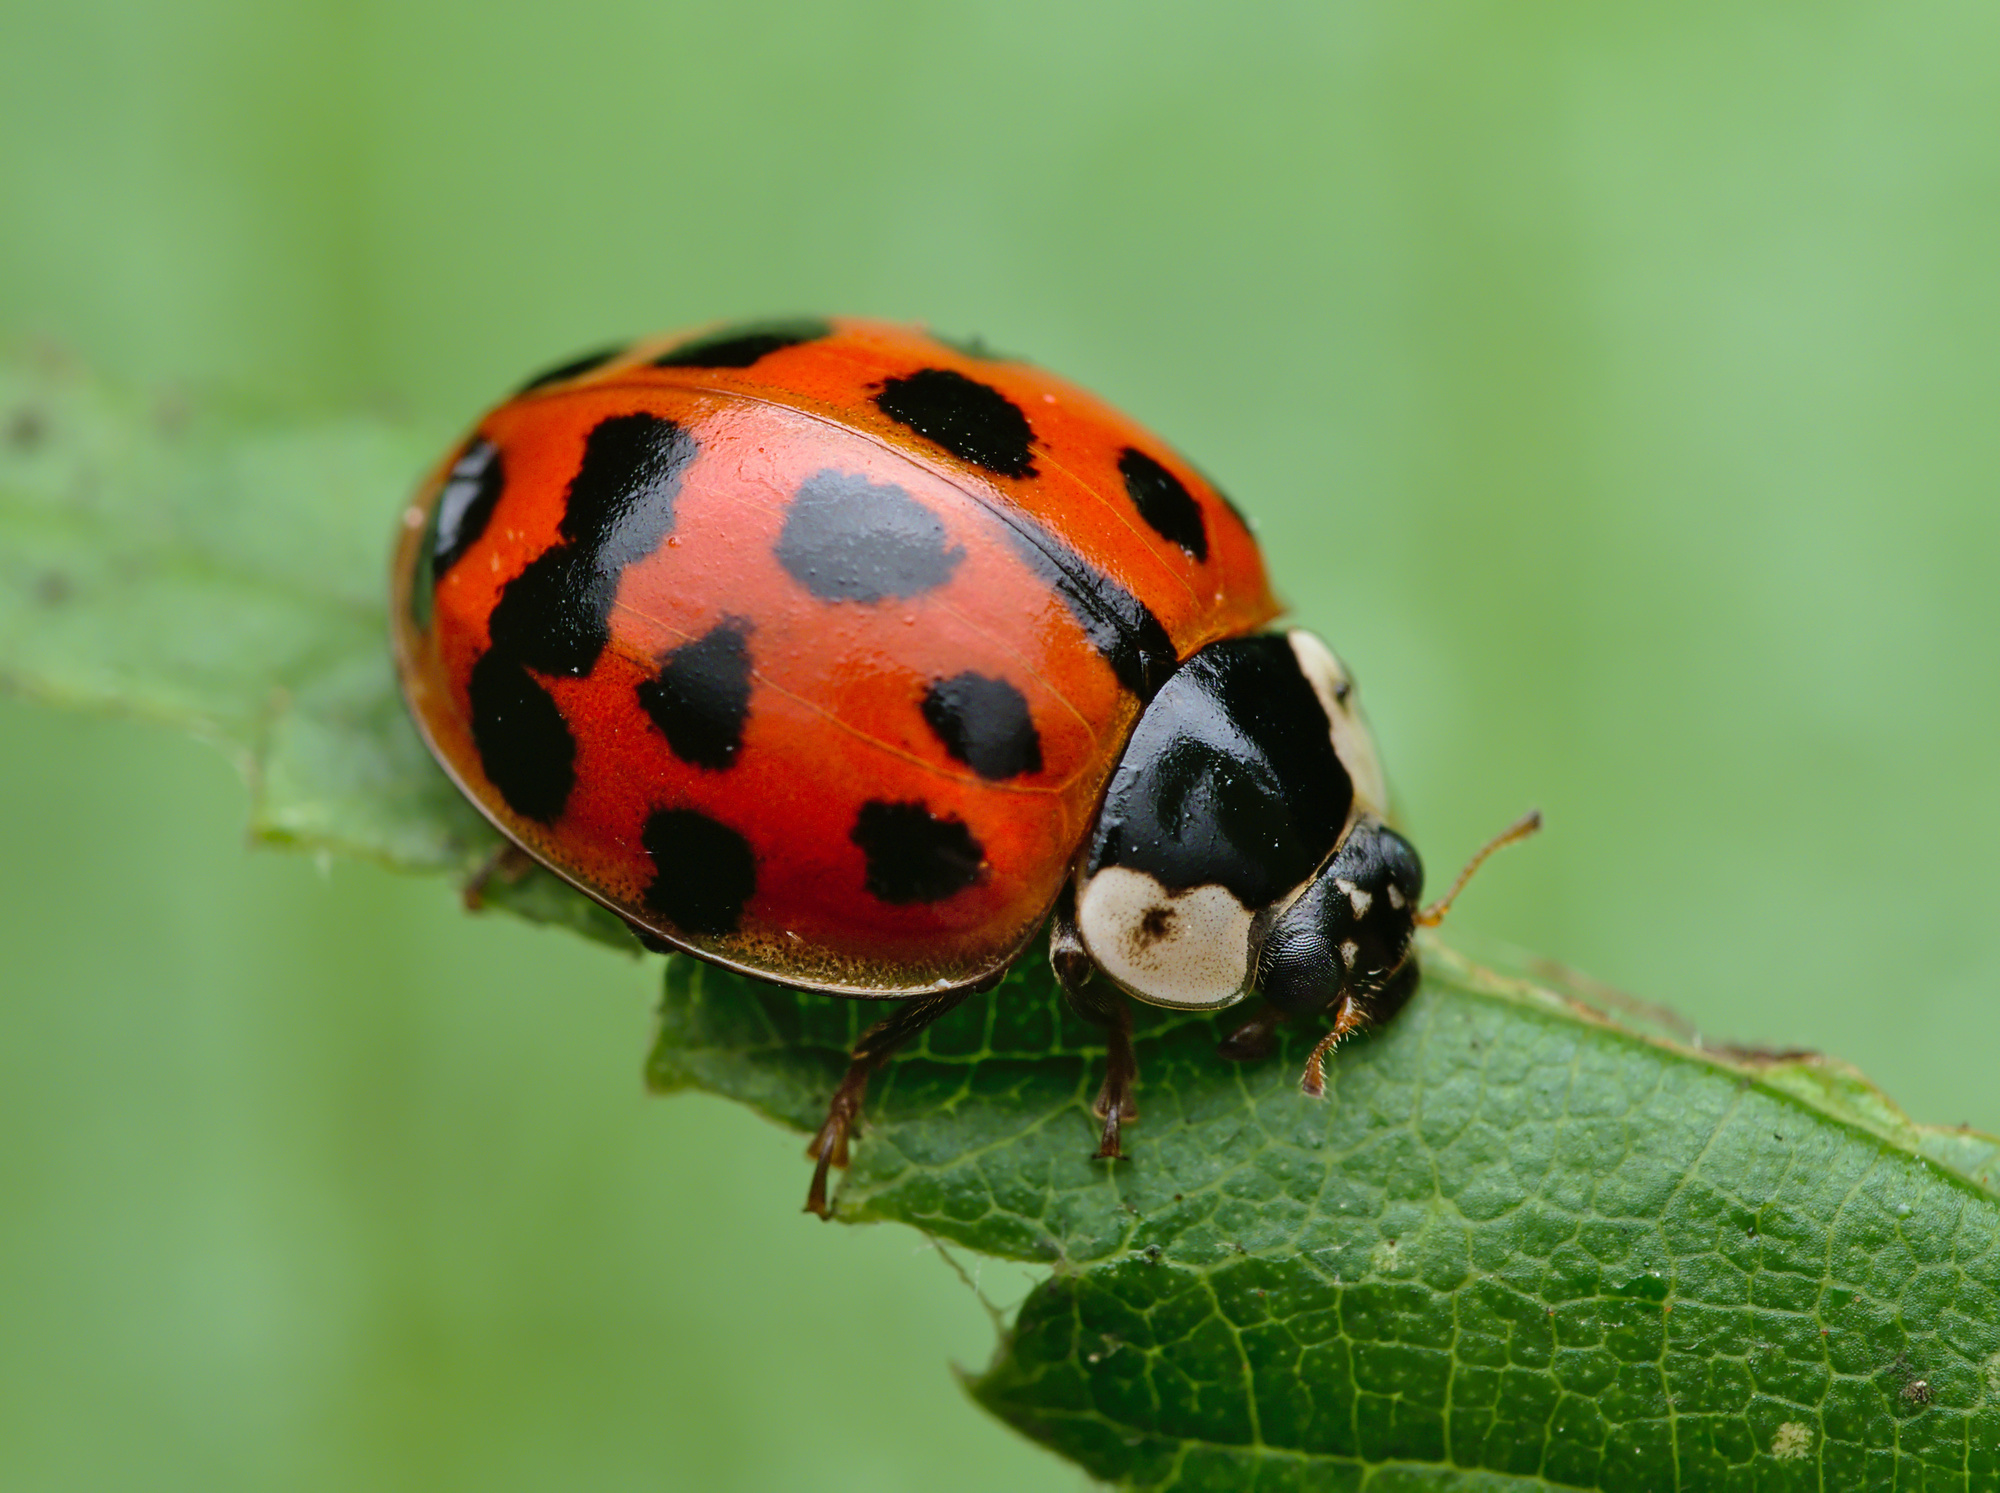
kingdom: Animalia
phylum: Arthropoda
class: Insecta
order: Coleoptera
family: Coccinellidae
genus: Harmonia
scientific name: Harmonia axyridis
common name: Harlequin ladybird
